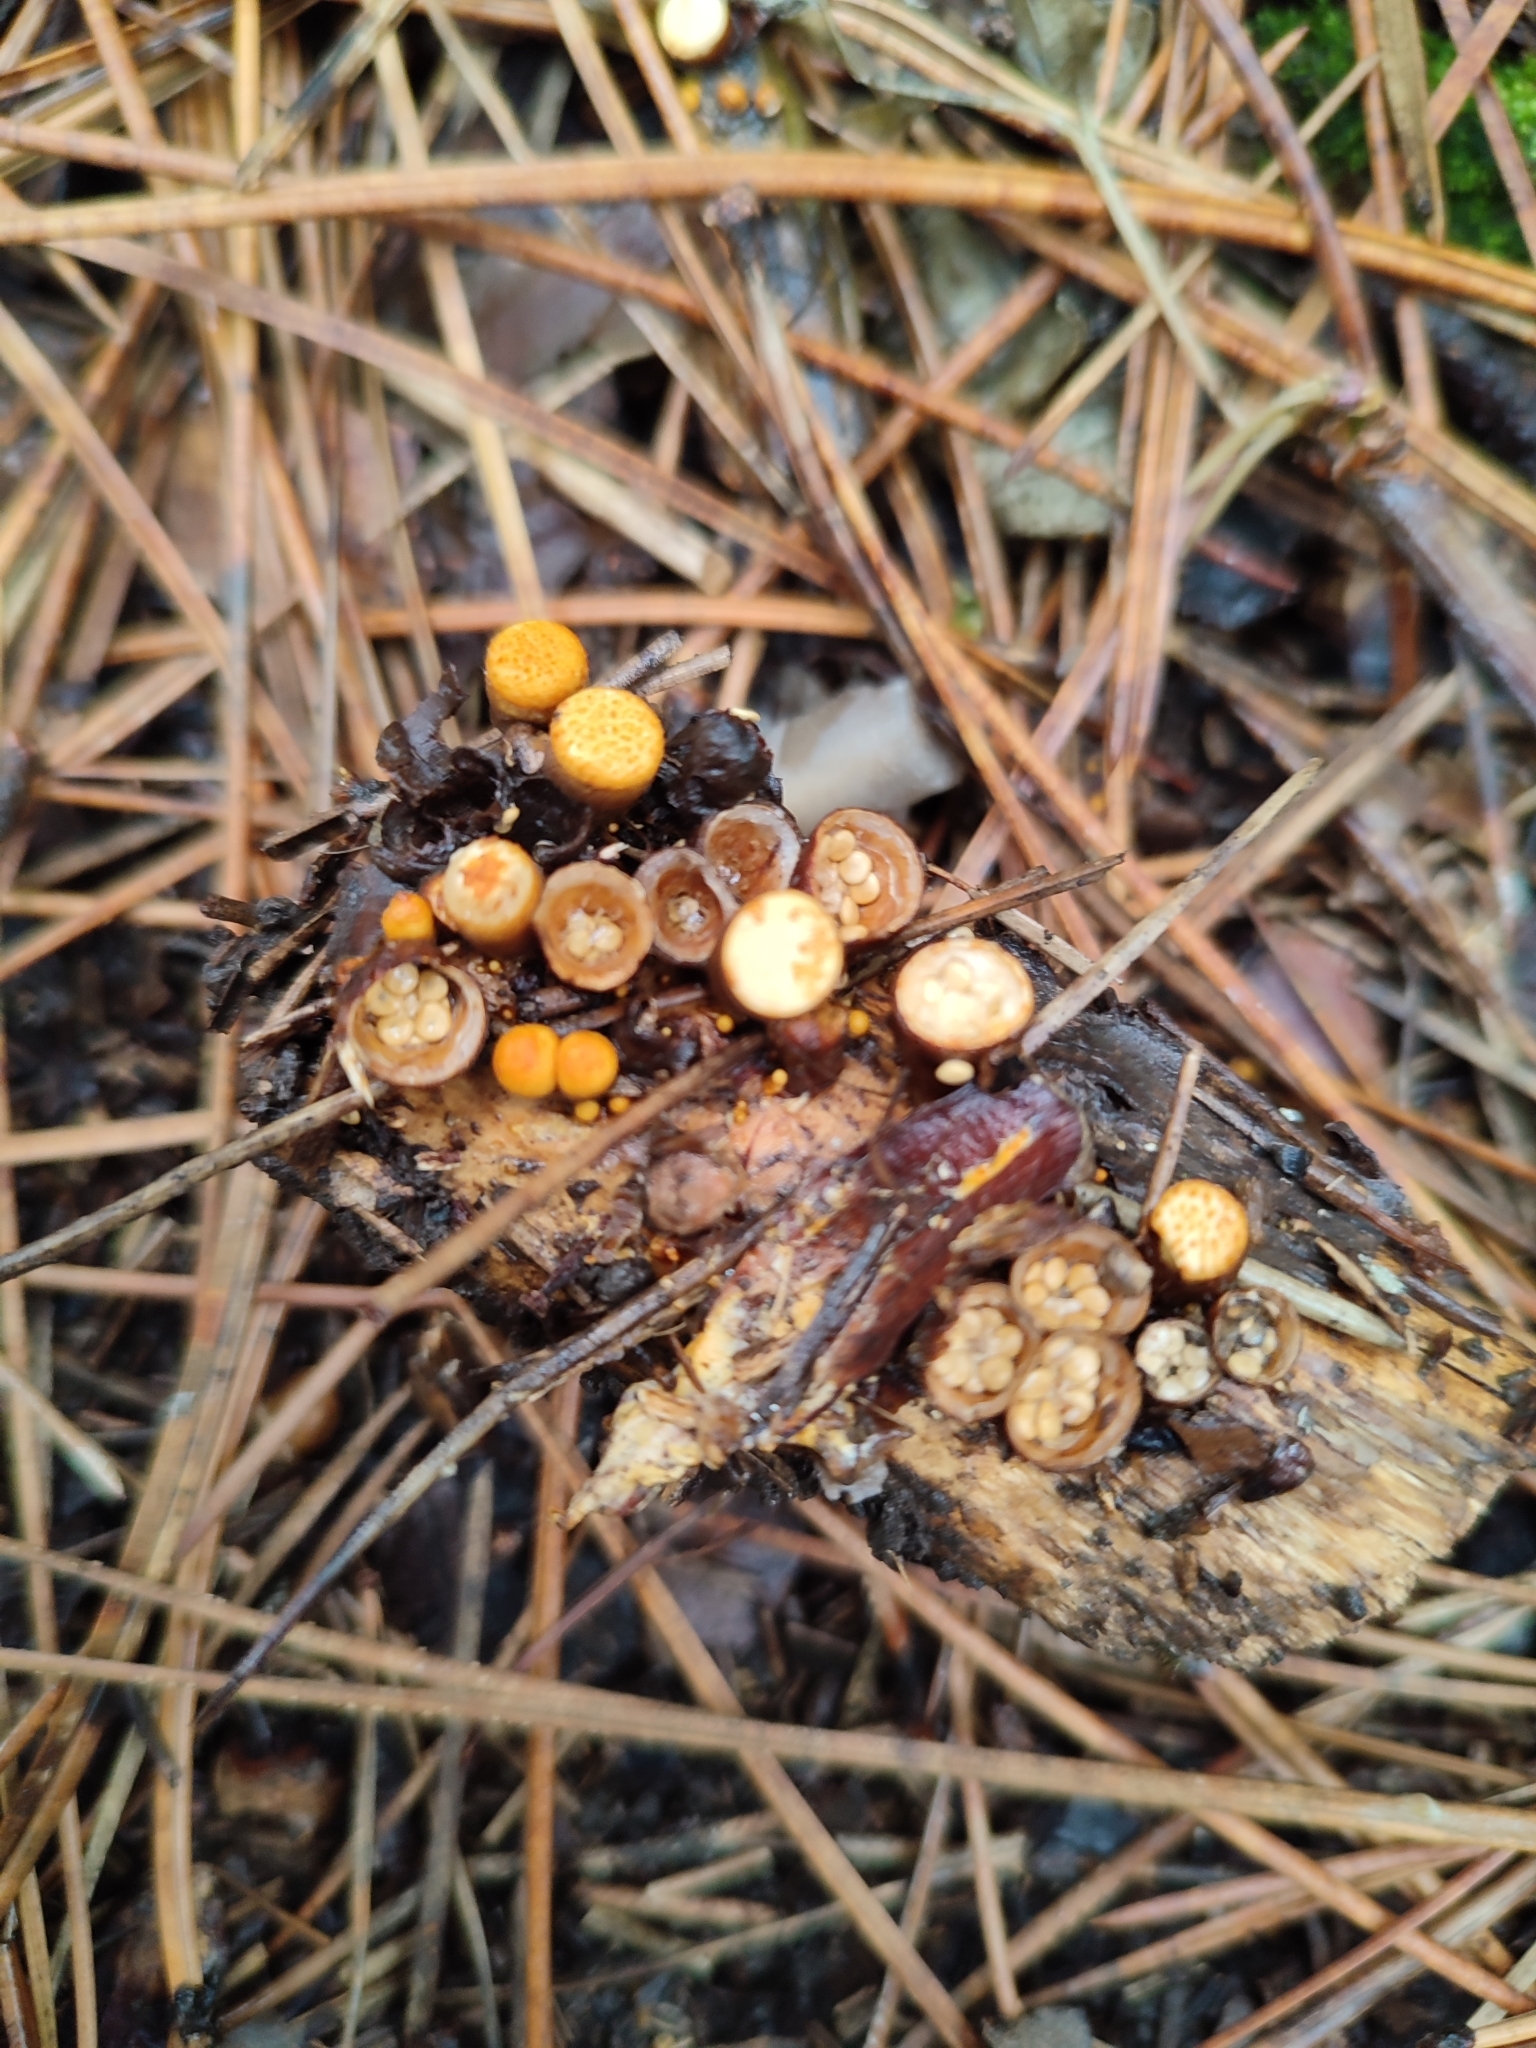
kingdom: Fungi
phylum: Basidiomycota
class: Agaricomycetes
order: Agaricales
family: Nidulariaceae
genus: Crucibulum
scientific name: Crucibulum laeve
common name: Common bird's nest
